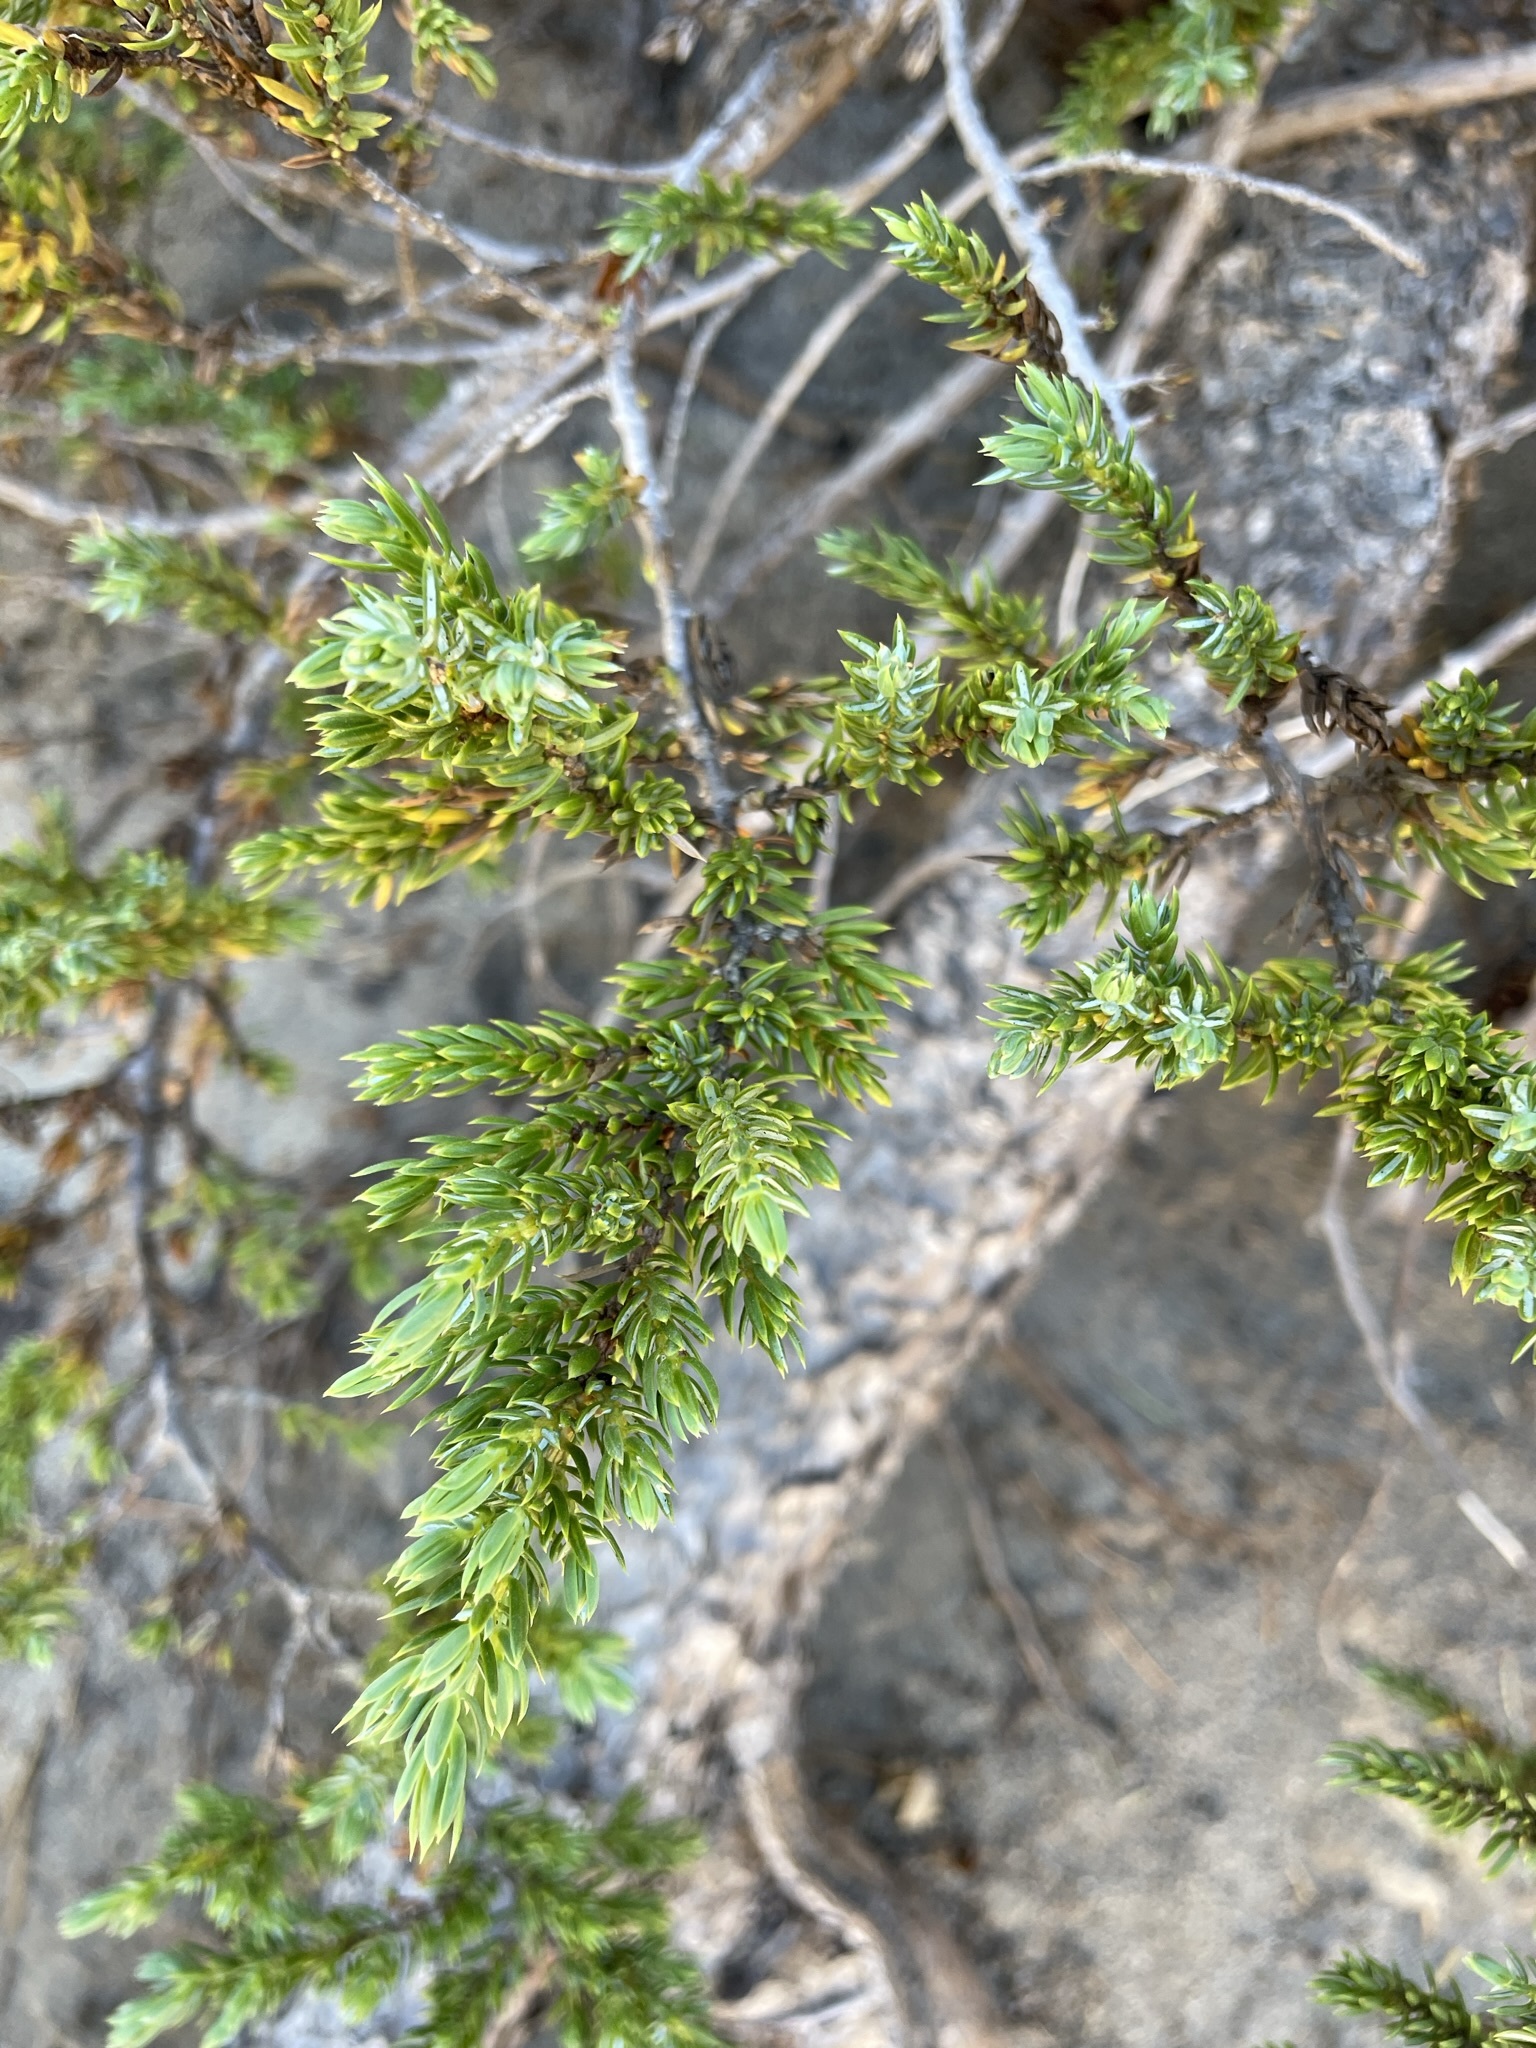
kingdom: Plantae
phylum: Tracheophyta
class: Pinopsida
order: Pinales
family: Cupressaceae
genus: Juniperus
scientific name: Juniperus communis
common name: Common juniper
